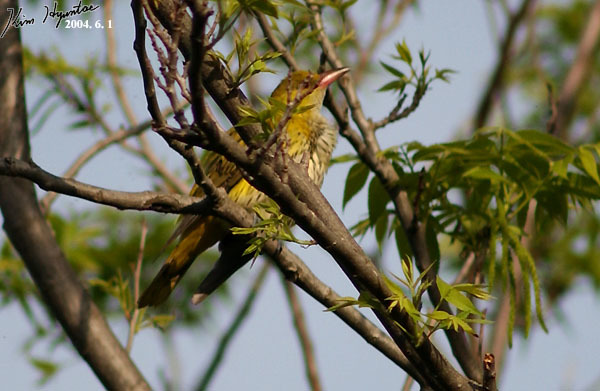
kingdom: Animalia
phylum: Chordata
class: Aves
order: Passeriformes
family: Oriolidae
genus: Oriolus
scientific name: Oriolus chinensis
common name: Black-naped oriole
